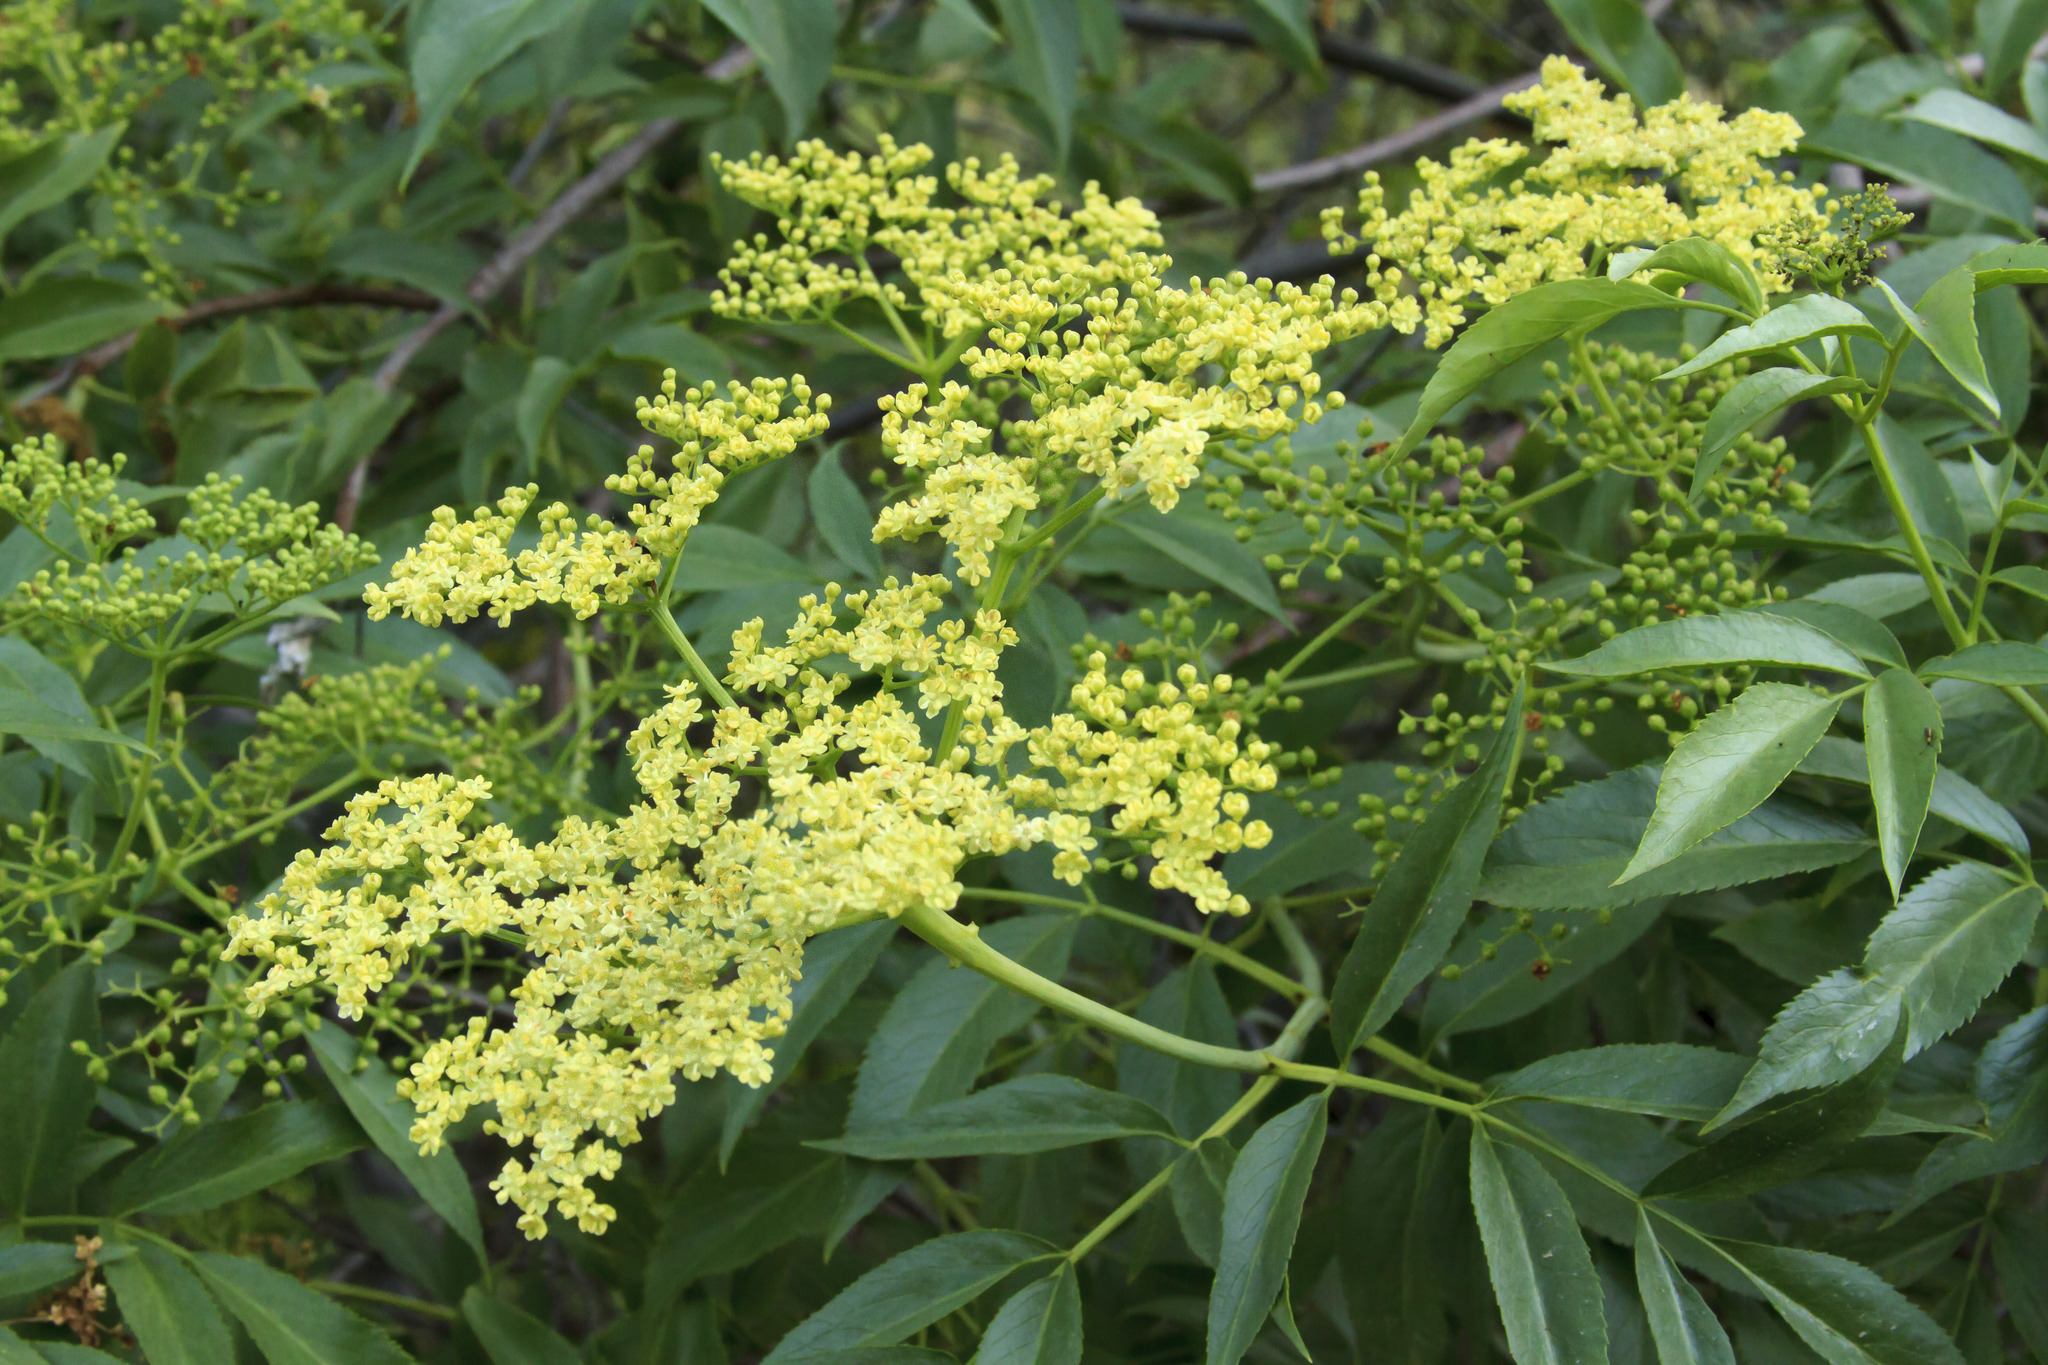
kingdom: Plantae
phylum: Tracheophyta
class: Magnoliopsida
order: Dipsacales
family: Viburnaceae
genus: Sambucus
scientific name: Sambucus cerulea
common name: Blue elder
